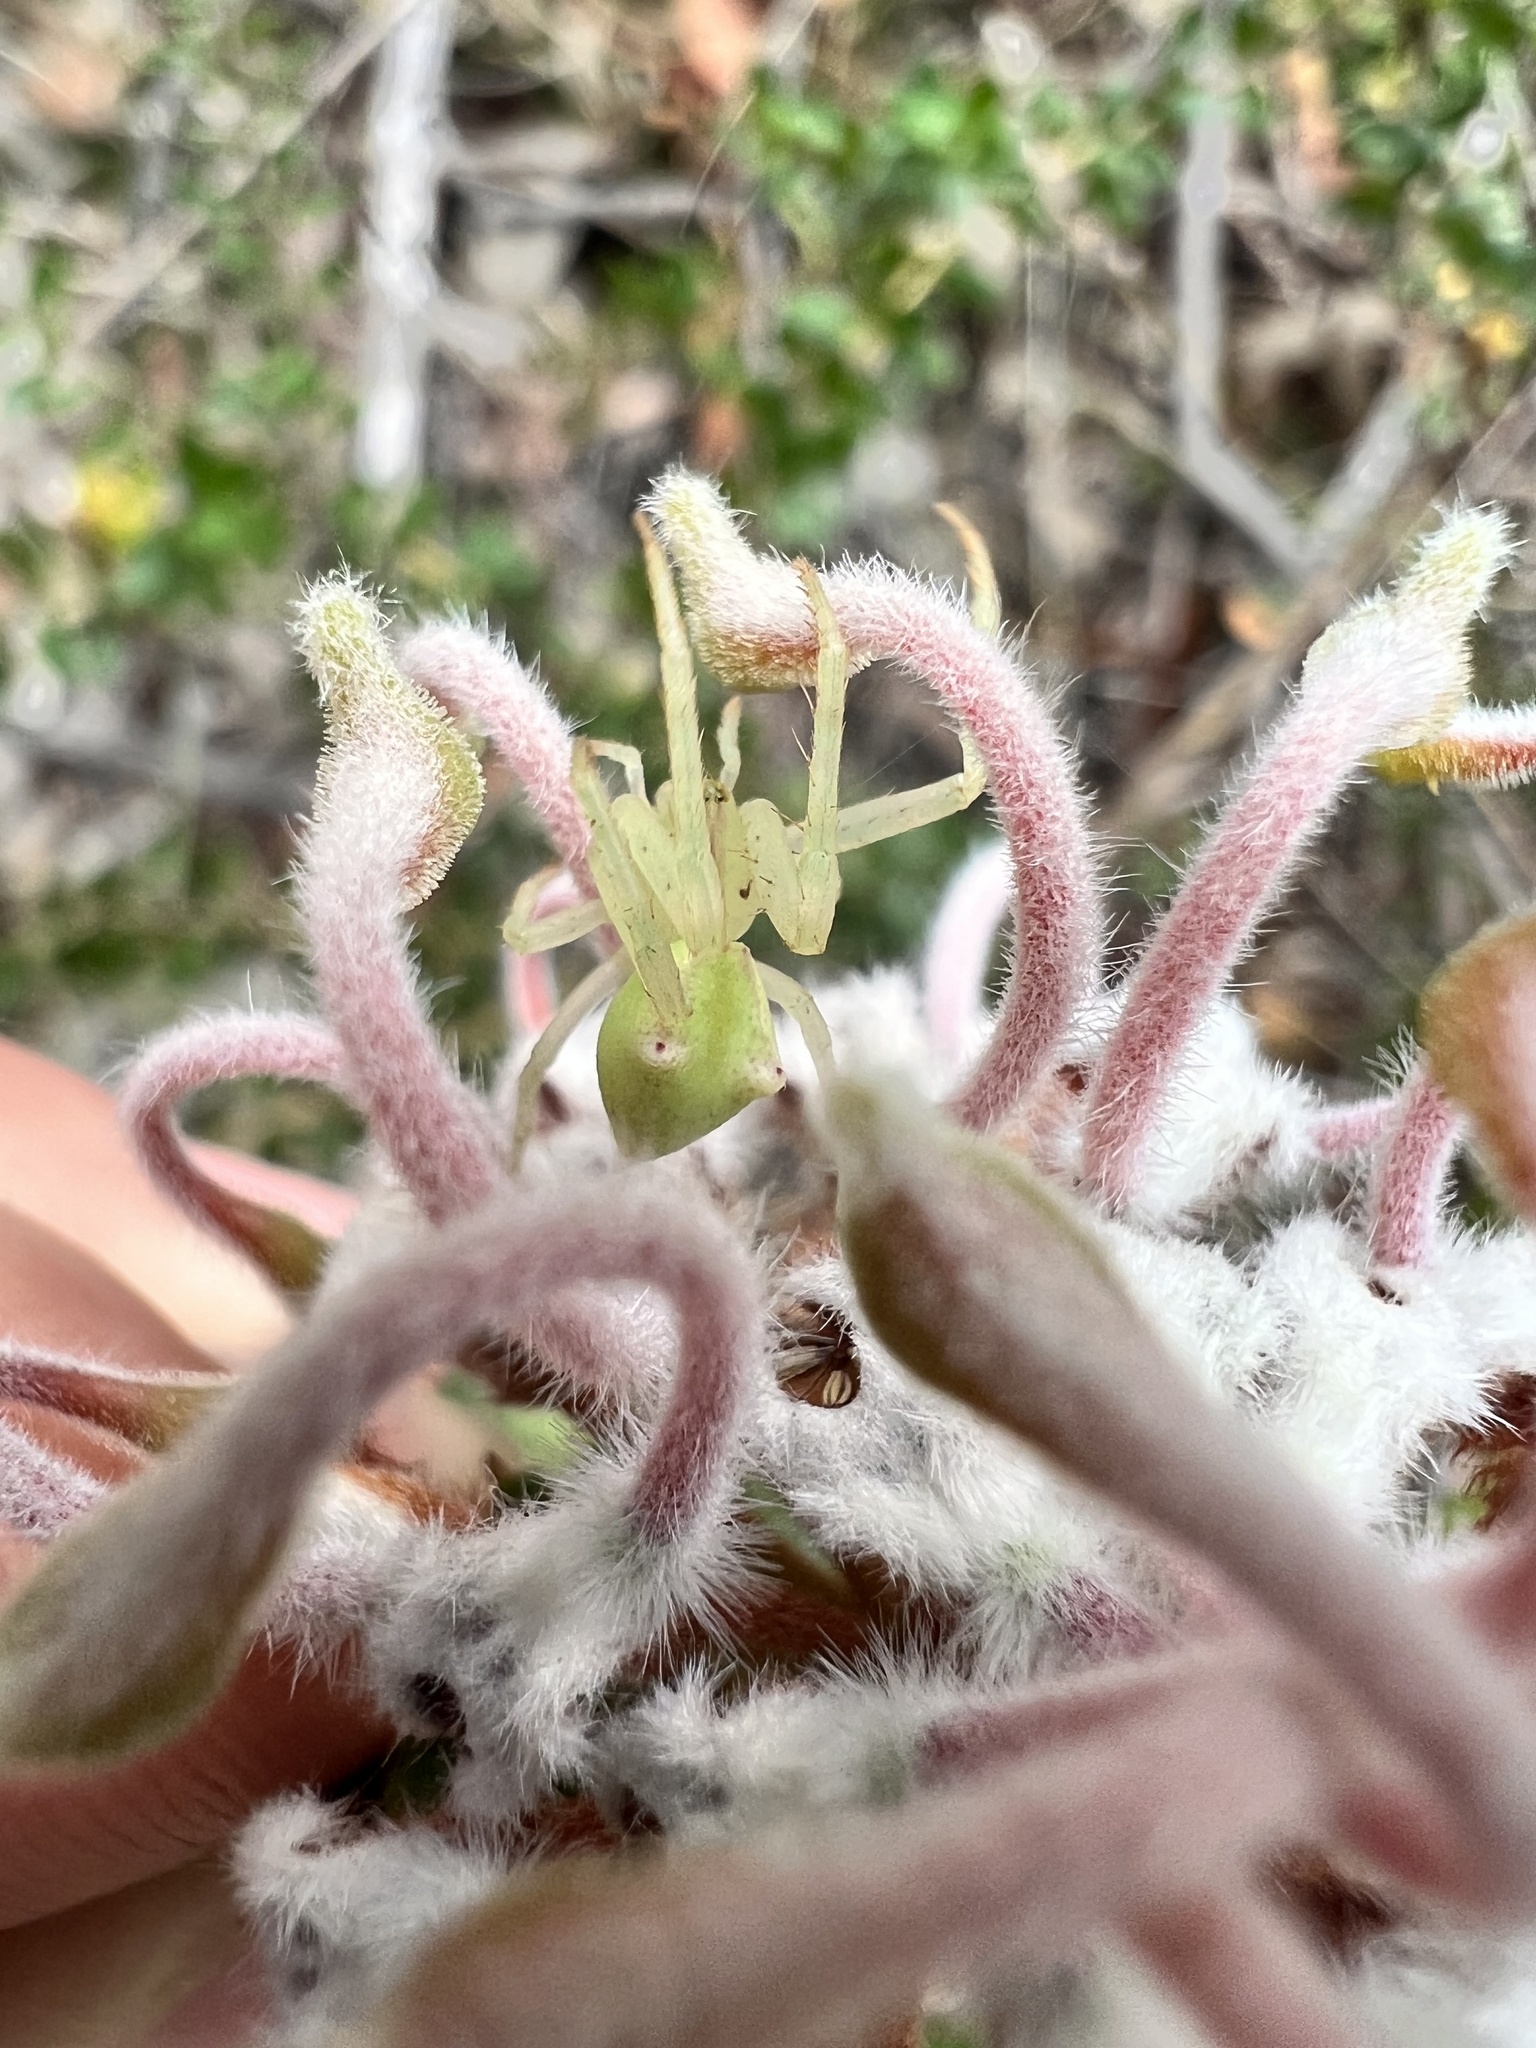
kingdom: Plantae
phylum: Tracheophyta
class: Magnoliopsida
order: Proteales
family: Proteaceae
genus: Grevillea
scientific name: Grevillea buxifolia
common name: Grey spiderflower
